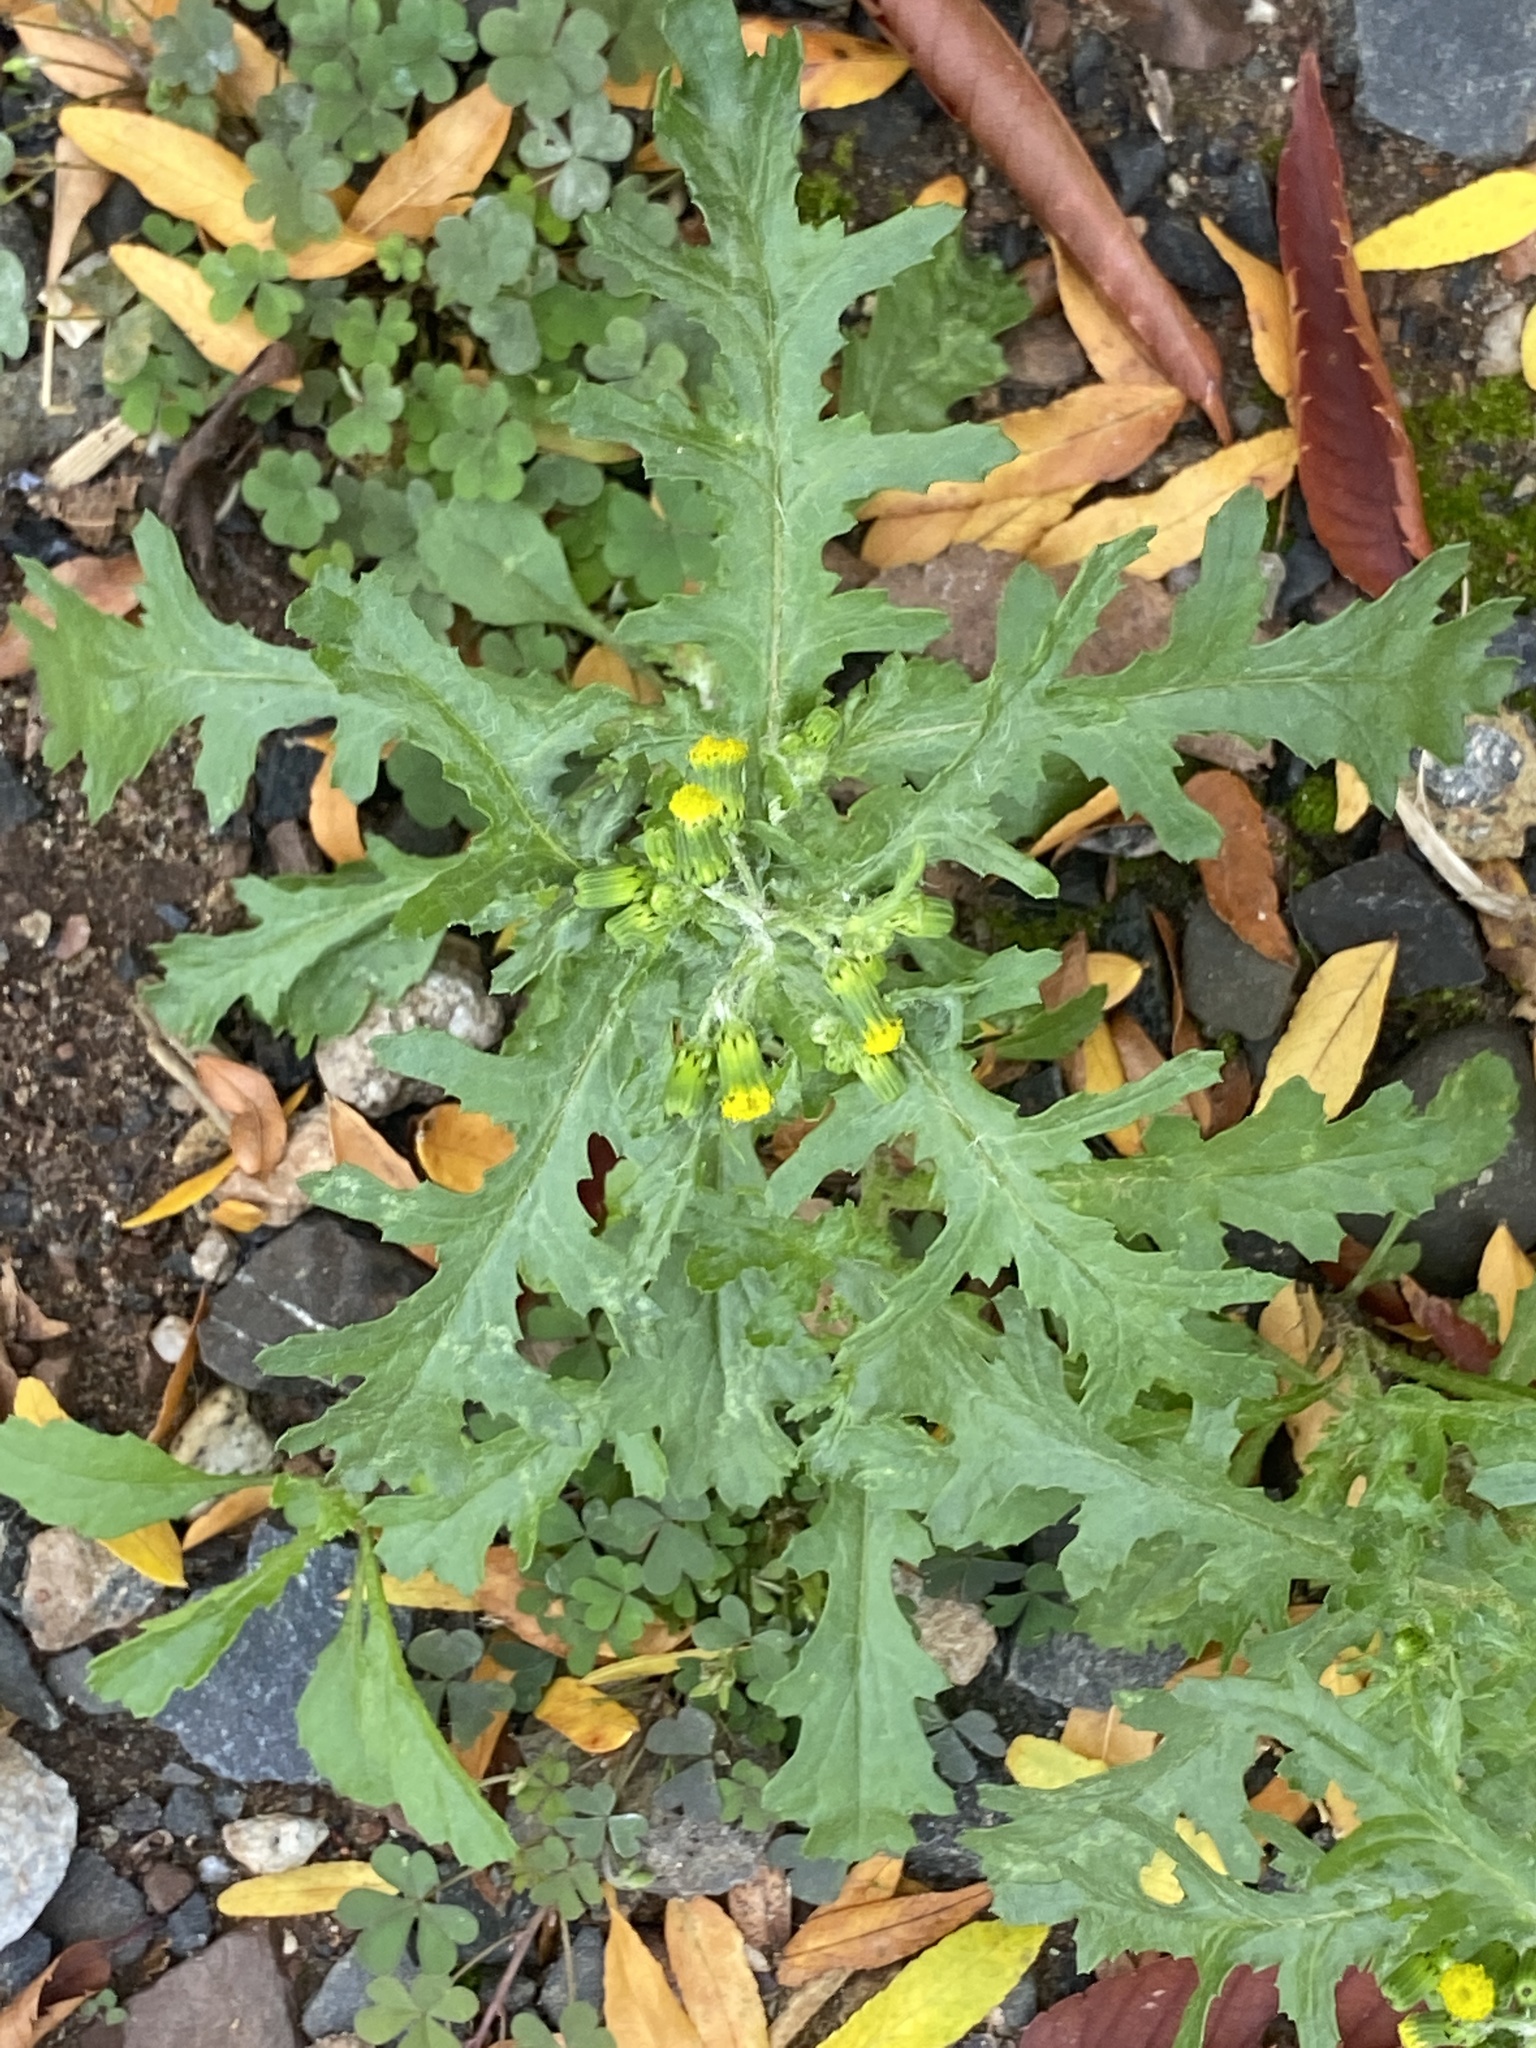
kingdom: Plantae
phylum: Tracheophyta
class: Magnoliopsida
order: Asterales
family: Asteraceae
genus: Senecio
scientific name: Senecio vulgaris
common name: Old-man-in-the-spring
